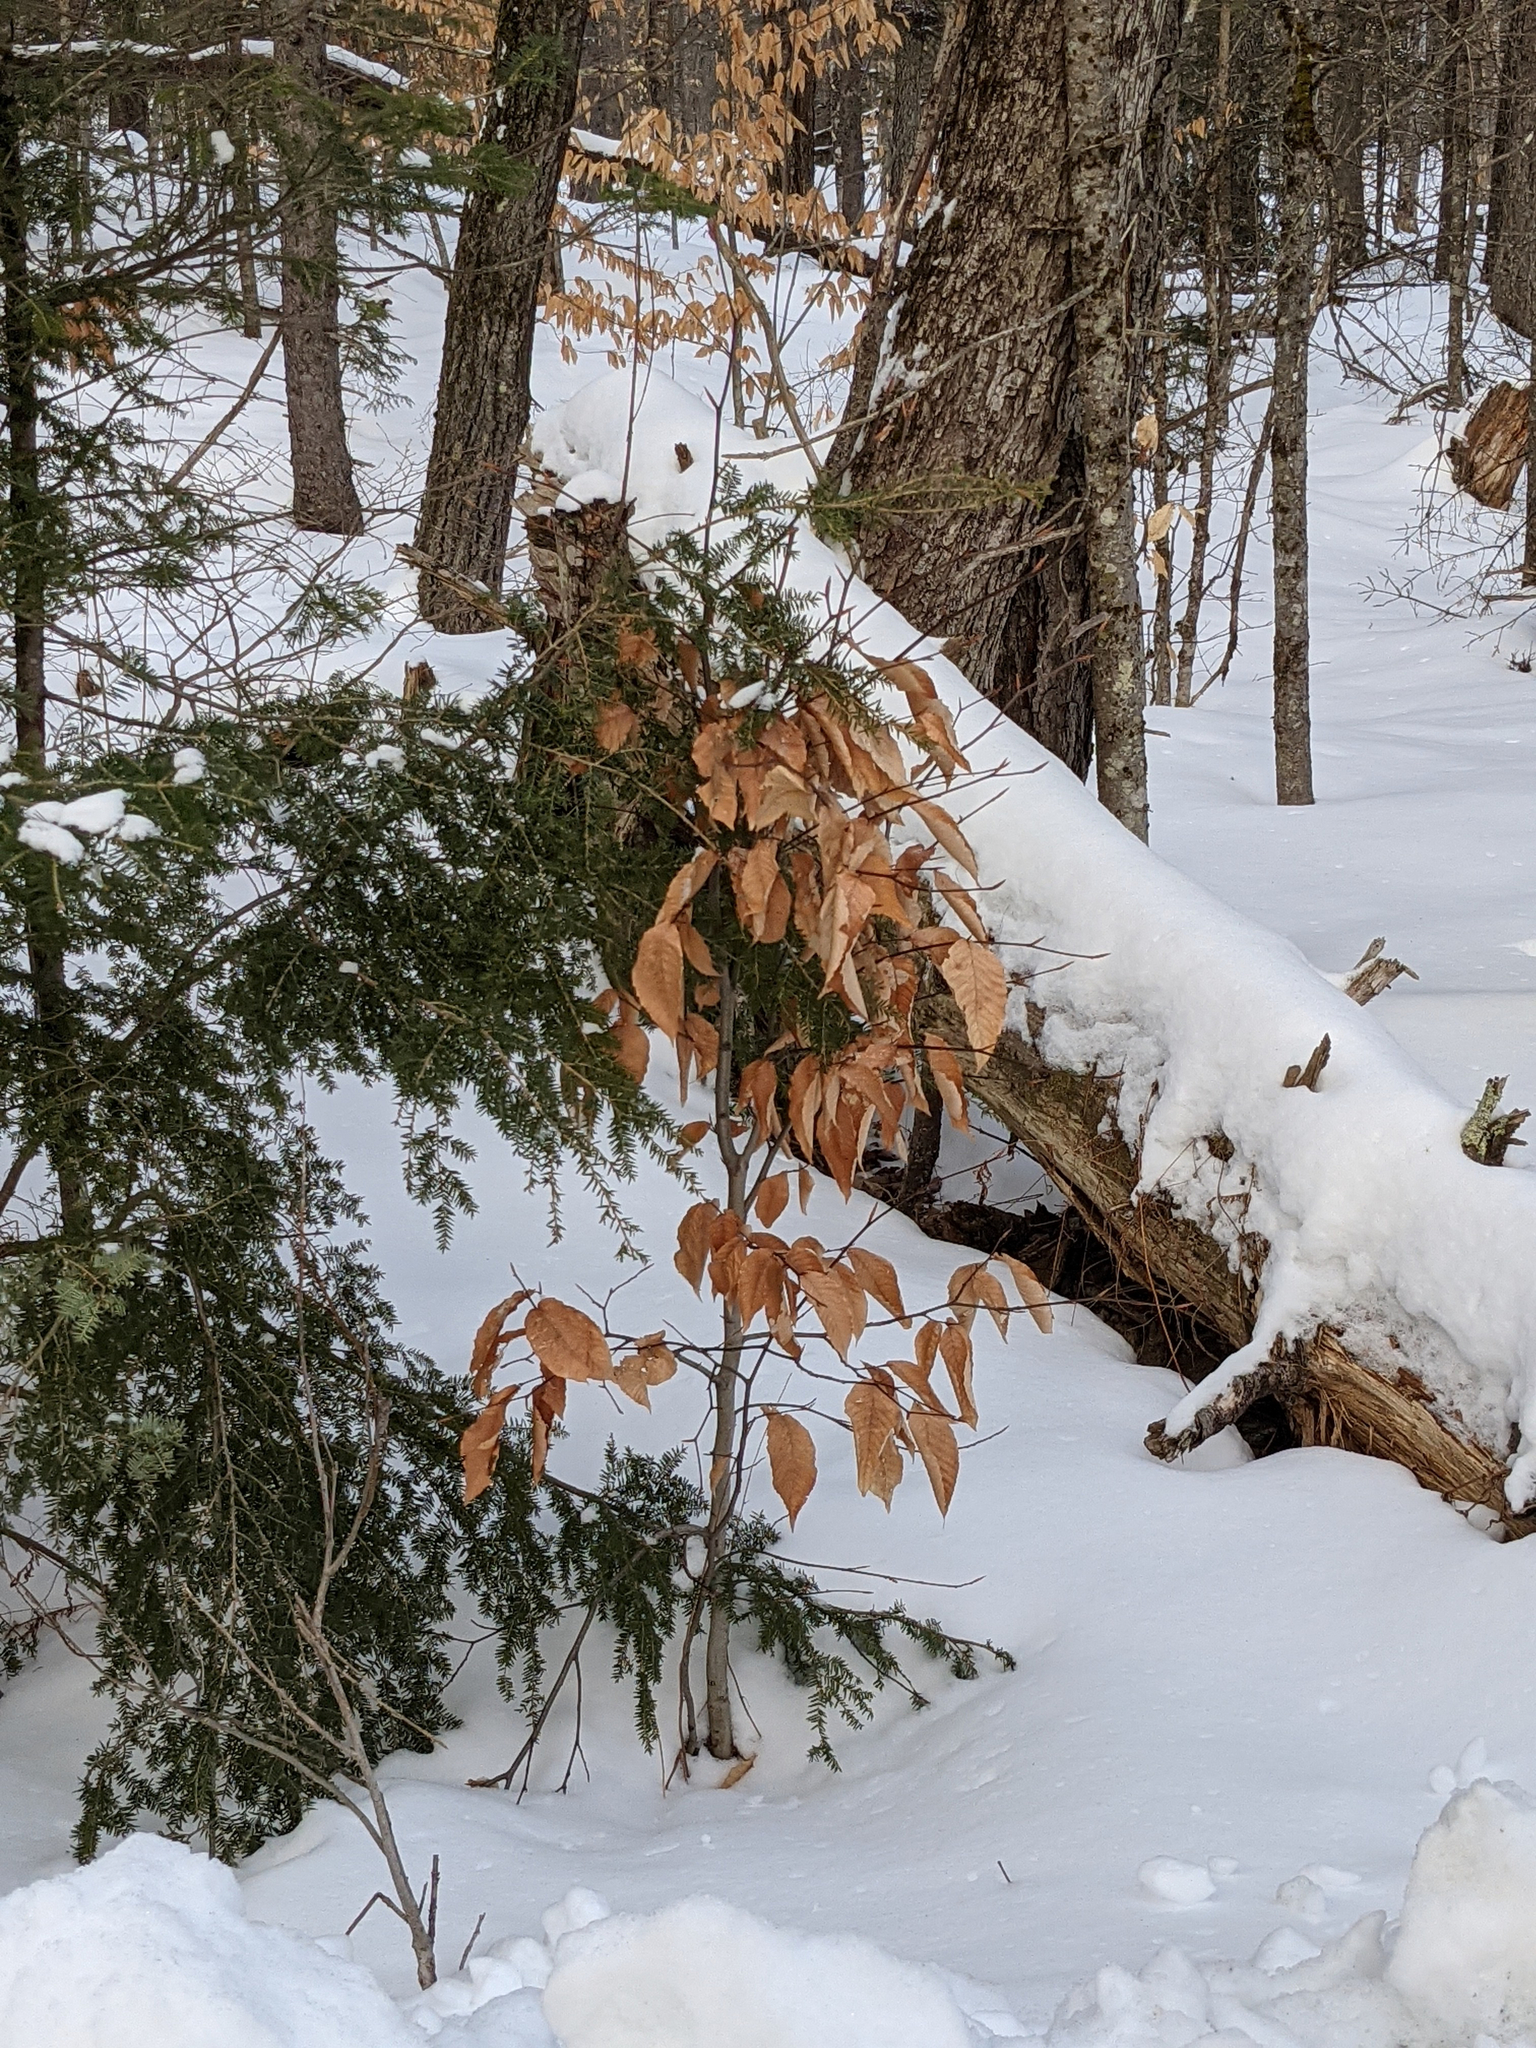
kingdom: Plantae
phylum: Tracheophyta
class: Magnoliopsida
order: Fagales
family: Fagaceae
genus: Fagus
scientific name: Fagus grandifolia
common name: American beech
